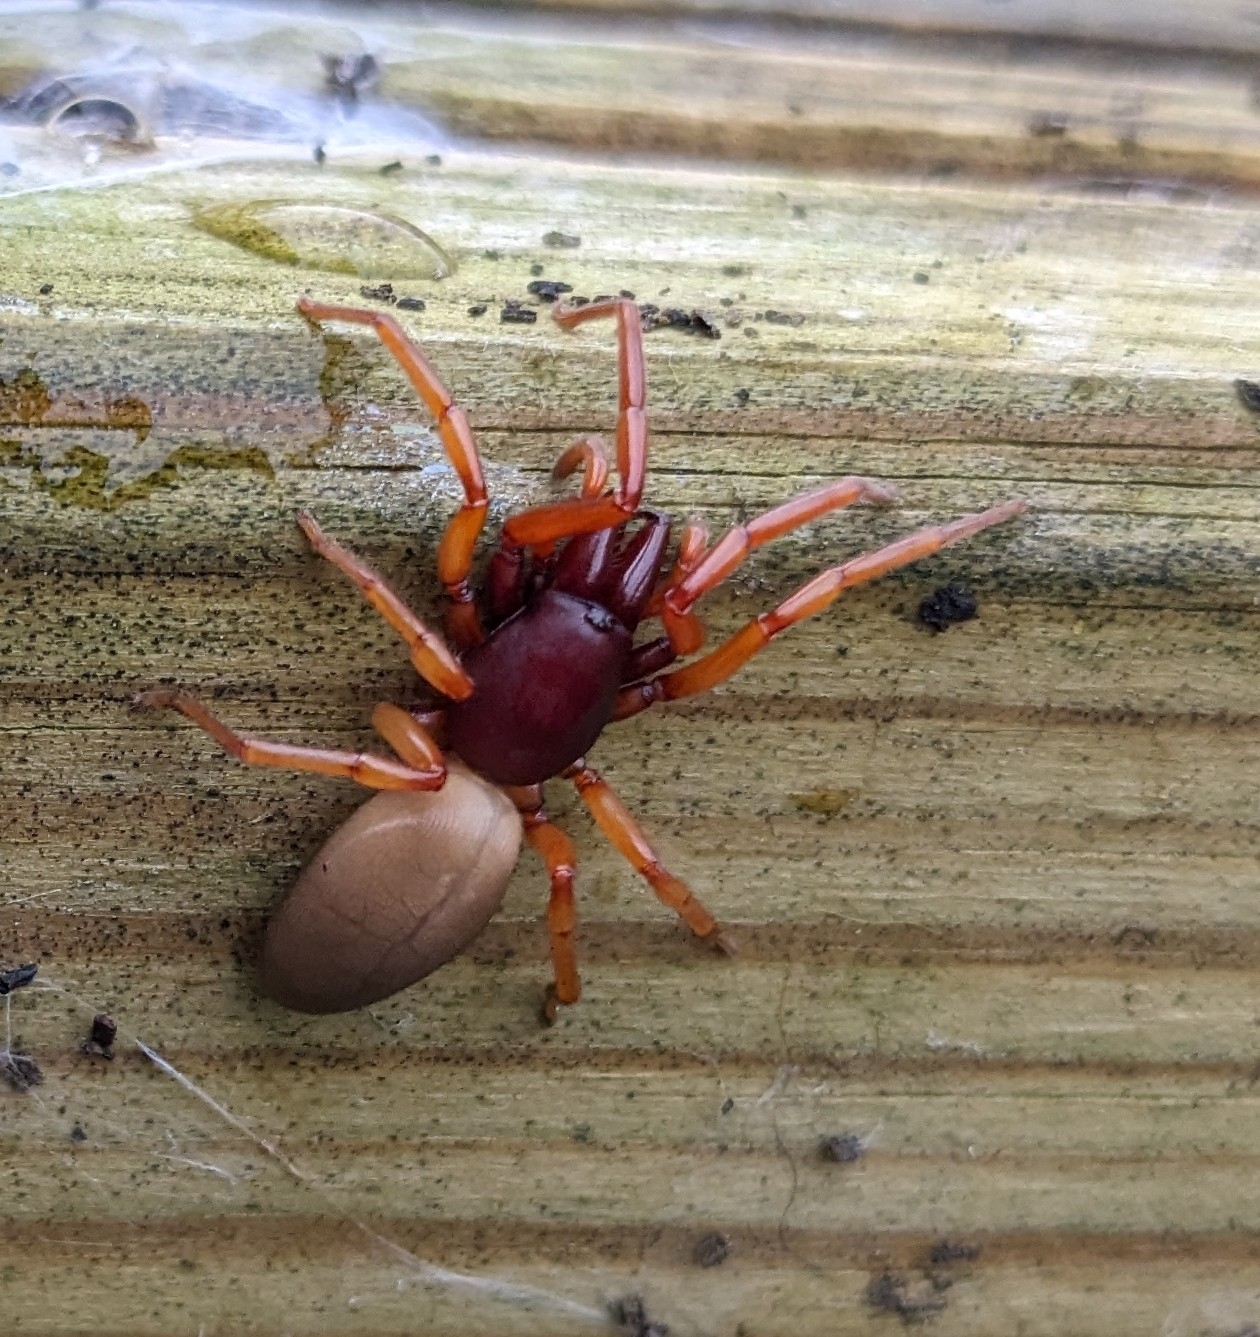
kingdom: Animalia
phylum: Arthropoda
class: Arachnida
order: Araneae
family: Dysderidae
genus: Dysdera
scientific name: Dysdera crocata
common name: Woodlouse spider
